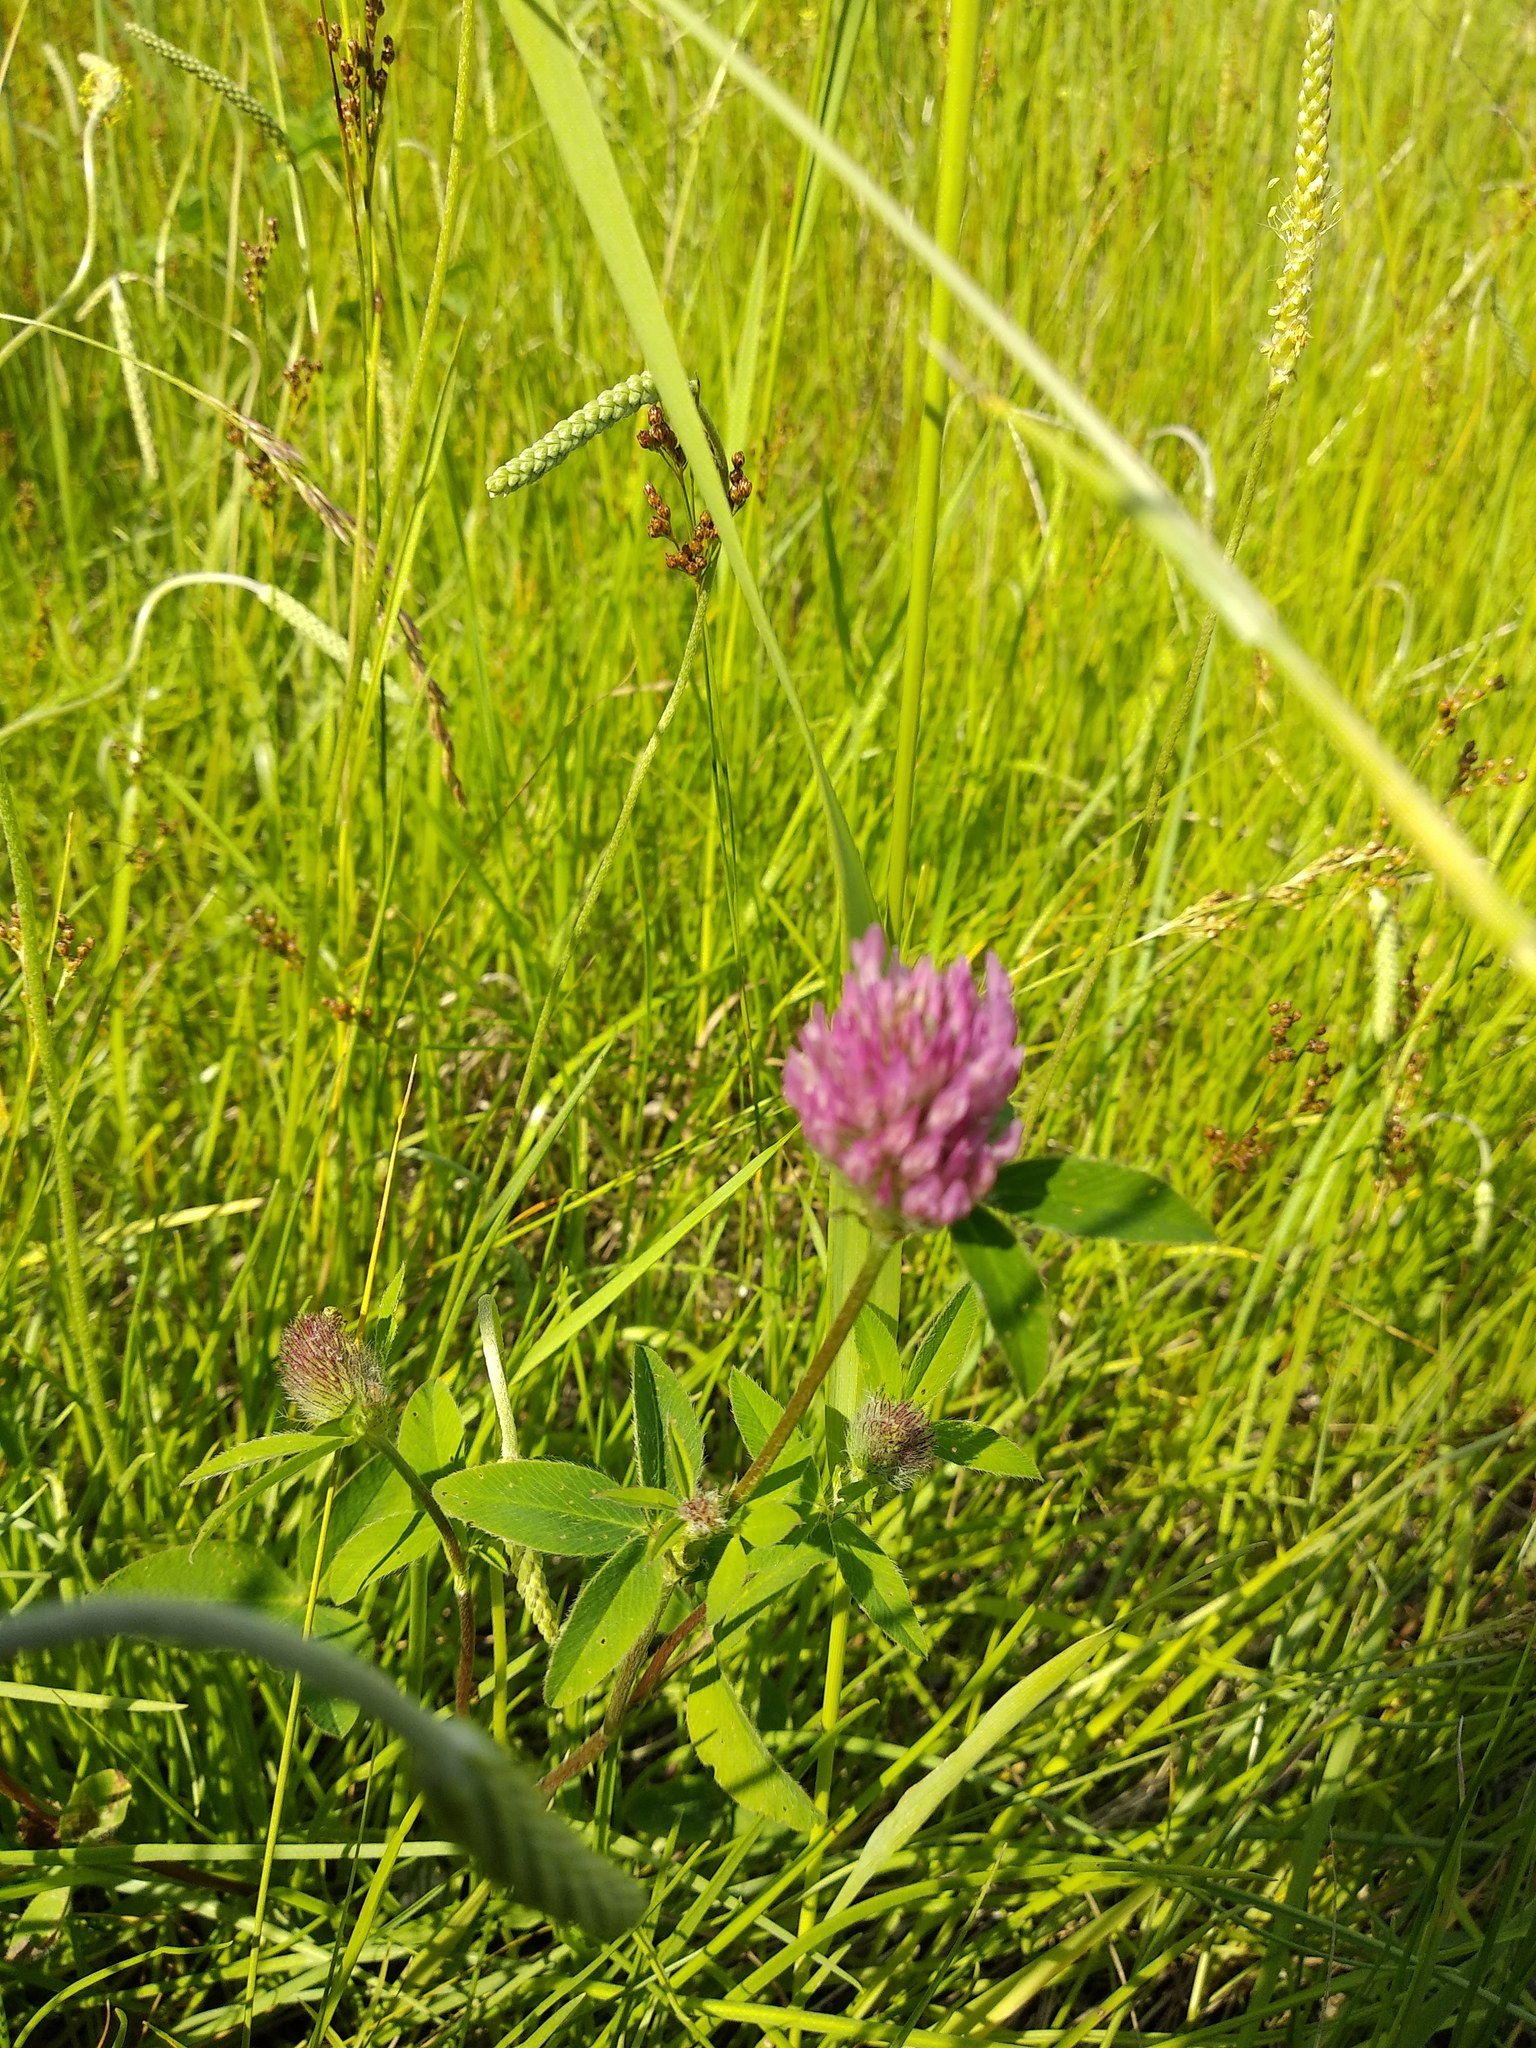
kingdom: Plantae
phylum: Tracheophyta
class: Magnoliopsida
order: Fabales
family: Fabaceae
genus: Trifolium
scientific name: Trifolium pratense
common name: Red clover
